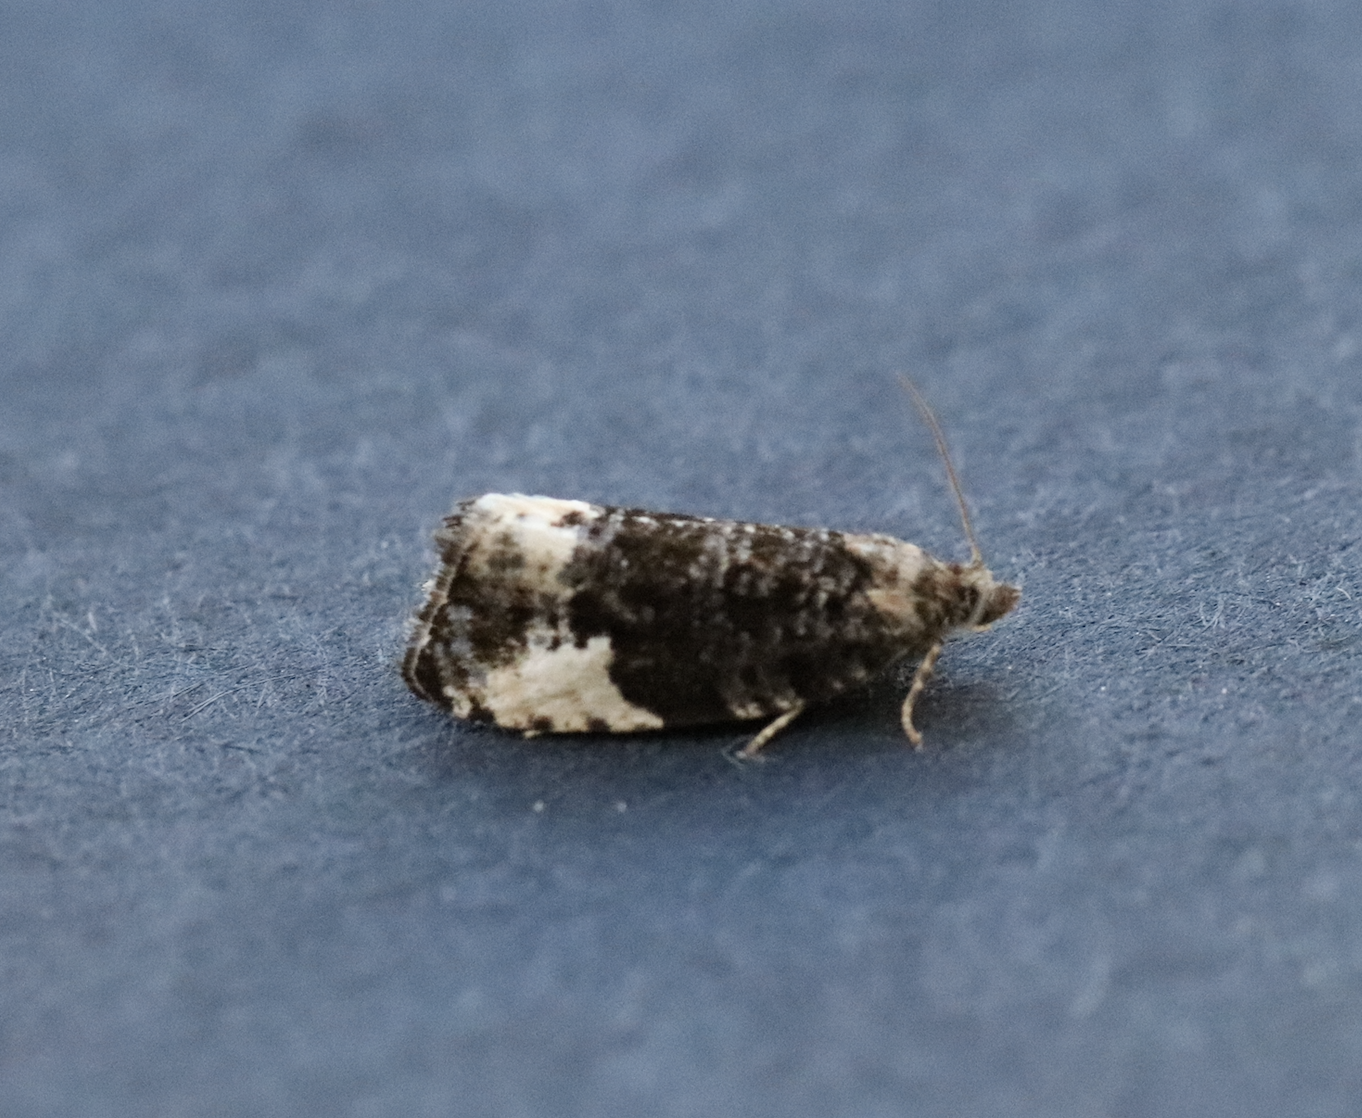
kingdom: Animalia
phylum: Arthropoda
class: Insecta
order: Lepidoptera
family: Tortricidae
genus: Hedya
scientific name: Hedya pruniana
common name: Plum tortrix
